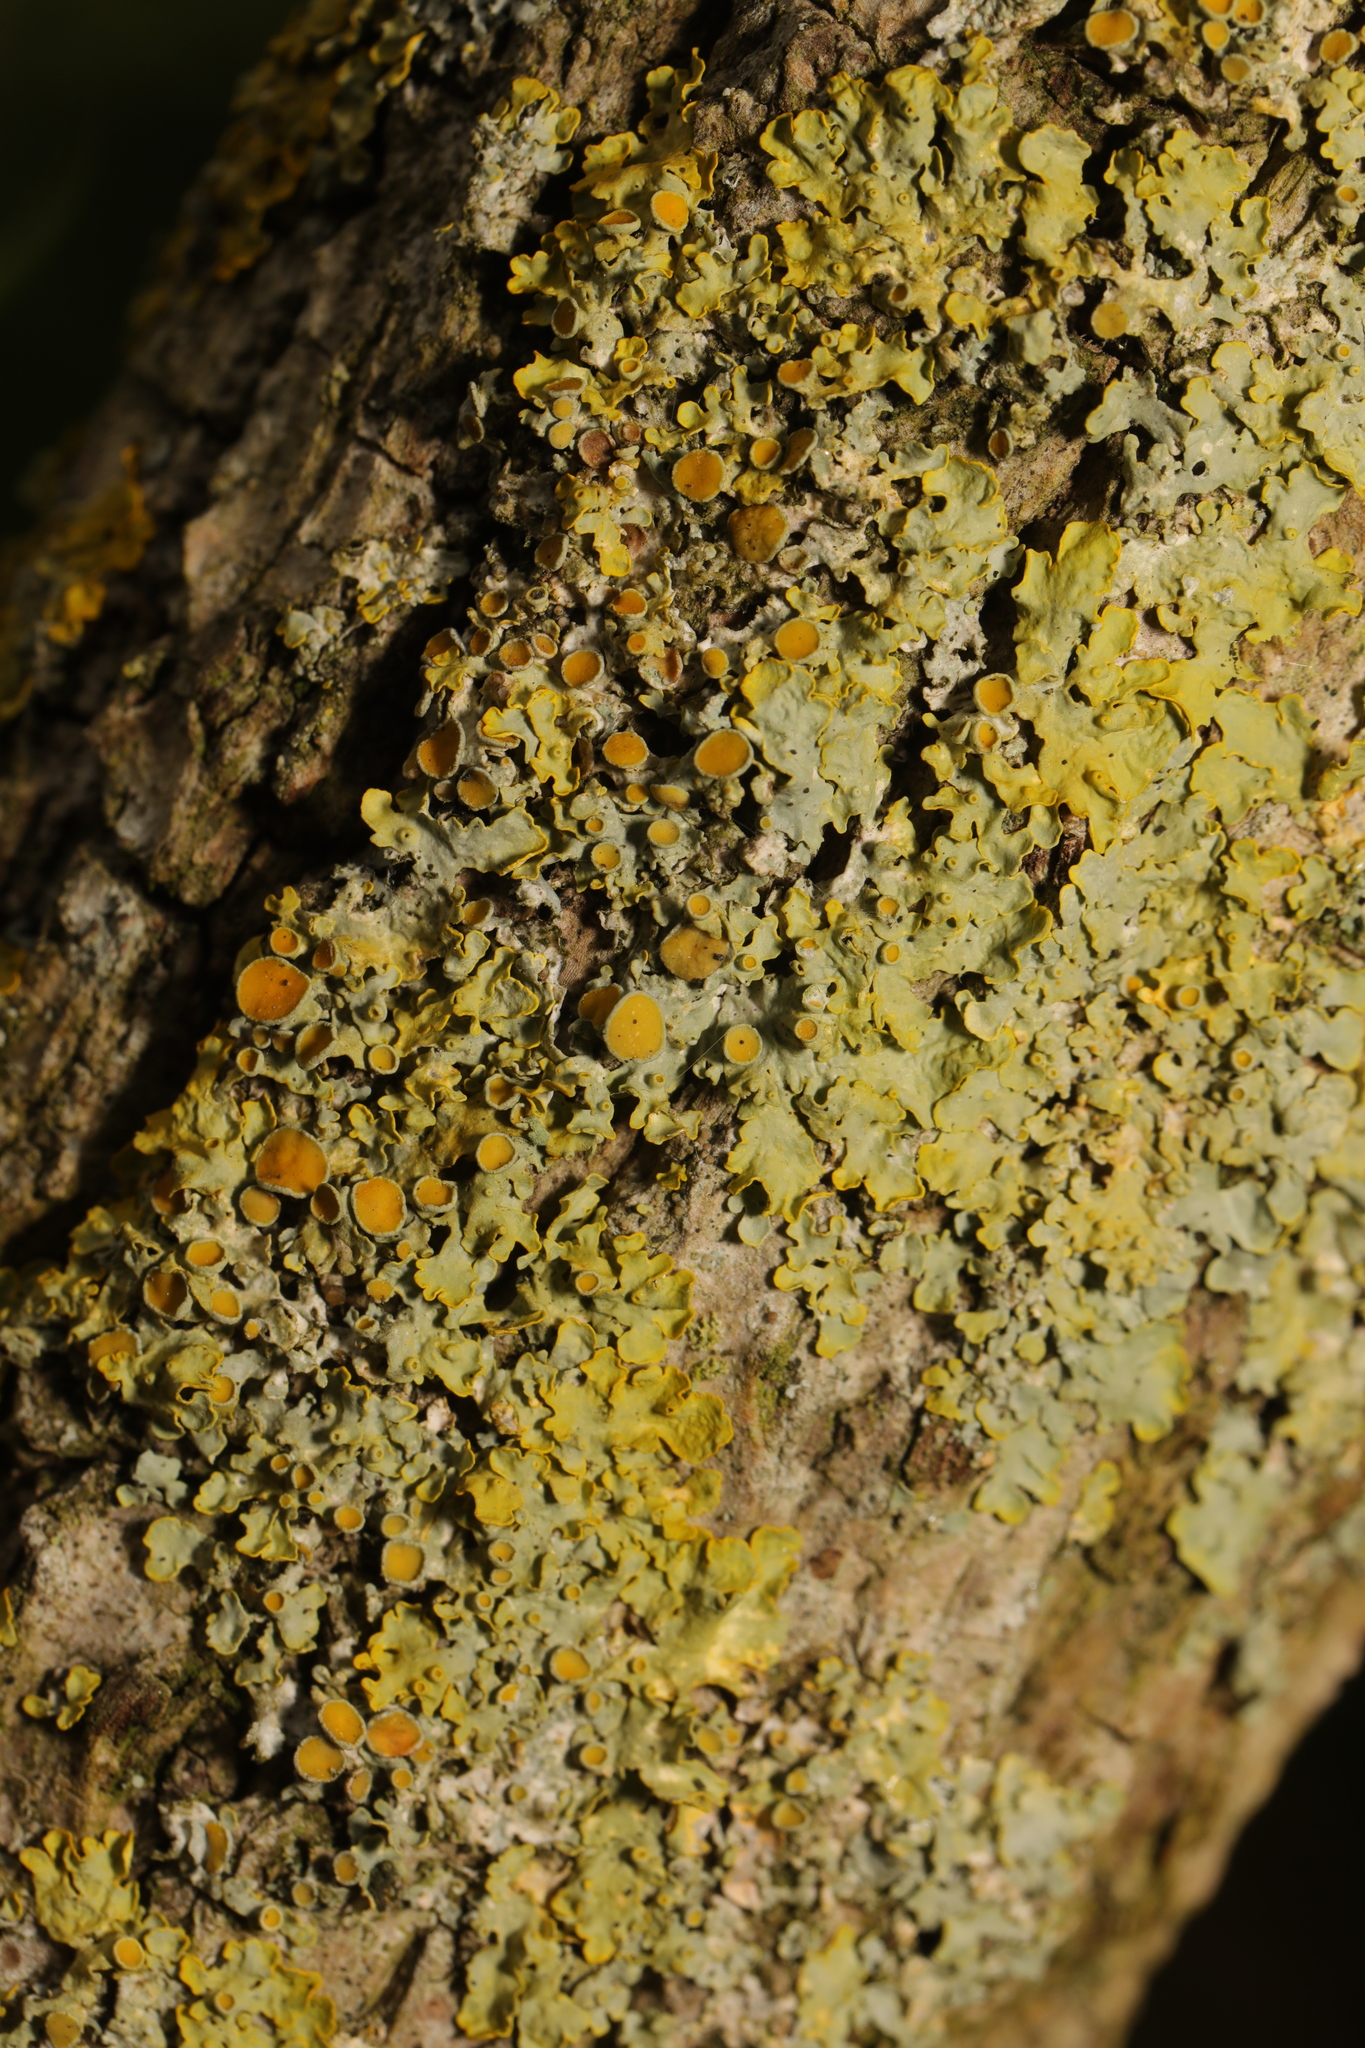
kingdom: Fungi
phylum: Ascomycota
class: Lecanoromycetes
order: Teloschistales
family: Teloschistaceae
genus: Xanthoria
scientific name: Xanthoria parietina
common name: Common orange lichen
